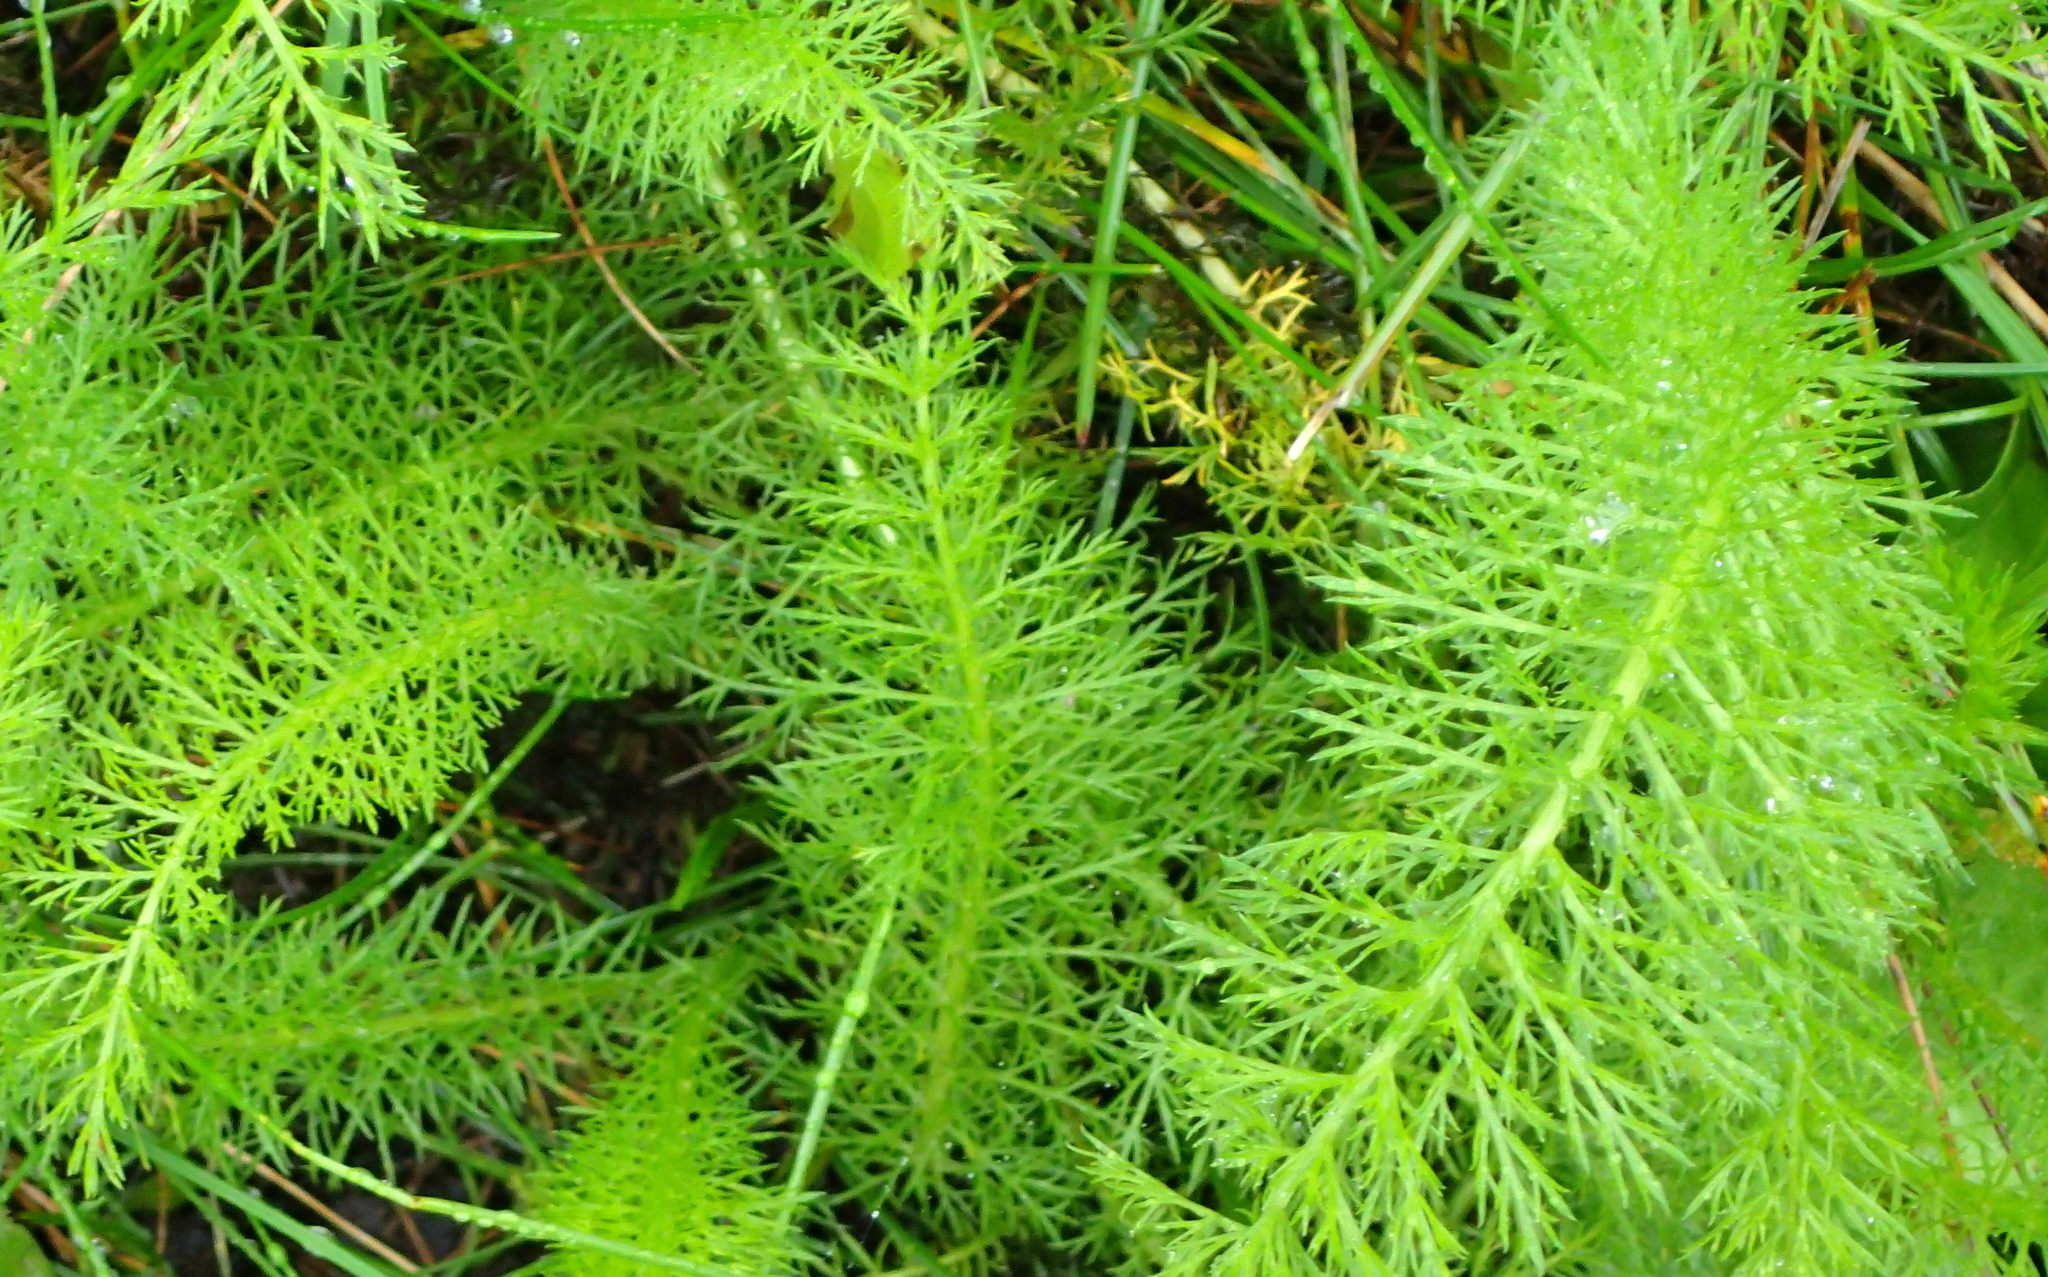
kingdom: Plantae
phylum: Tracheophyta
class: Magnoliopsida
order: Asterales
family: Asteraceae
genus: Achillea
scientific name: Achillea millefolium
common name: Yarrow
